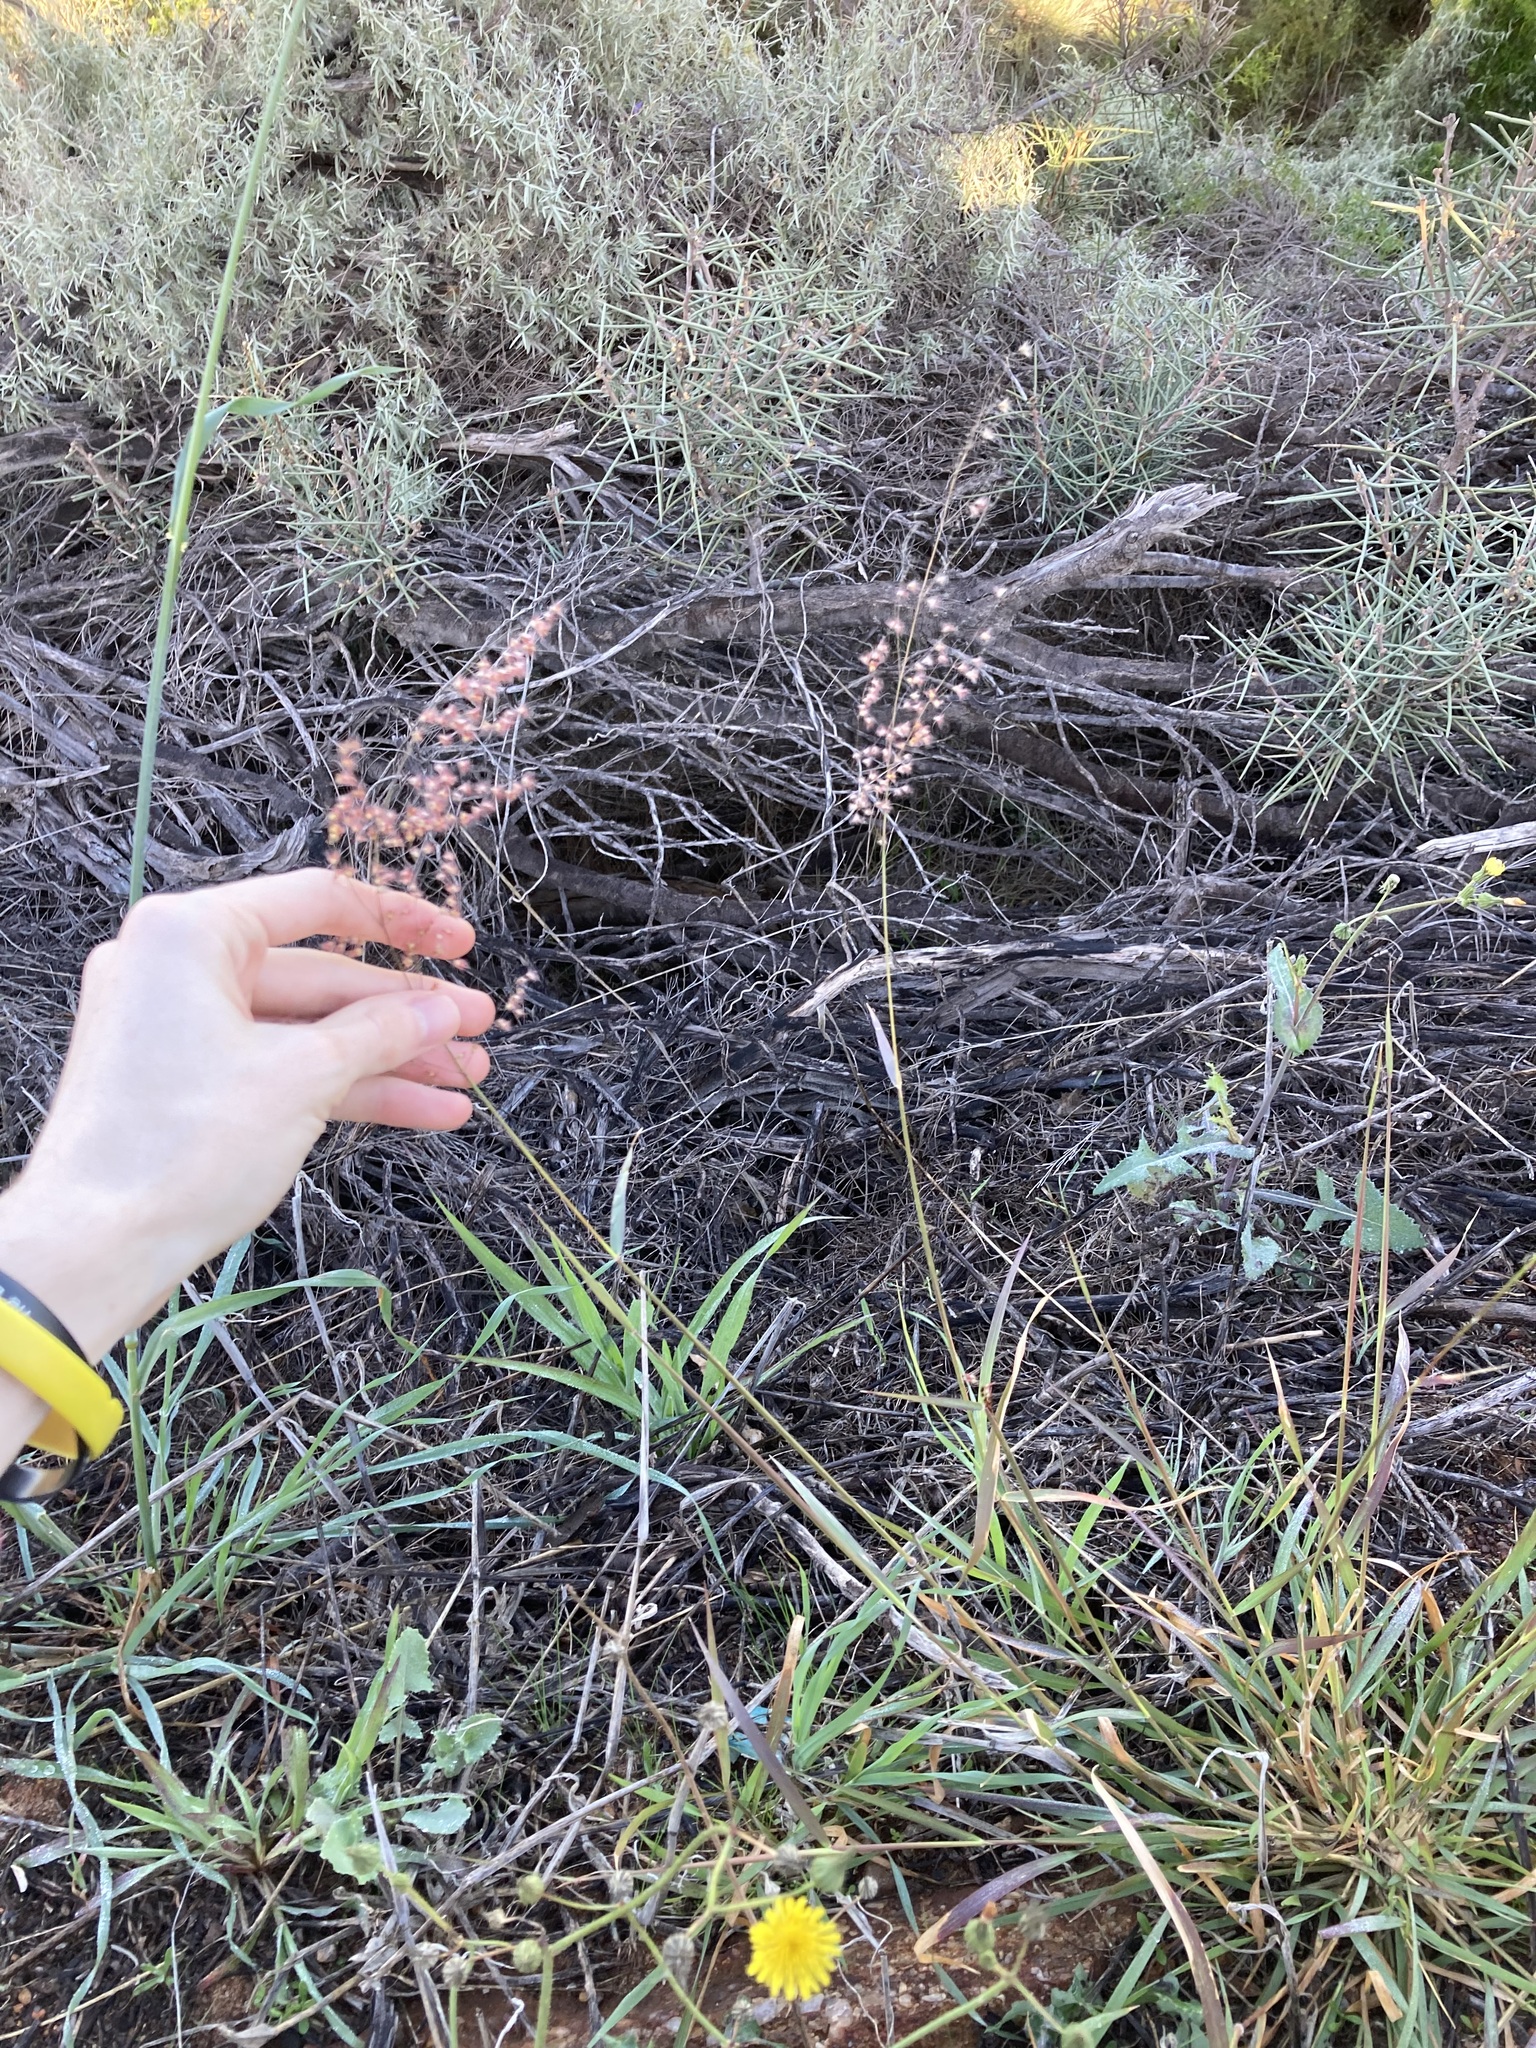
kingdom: Plantae
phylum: Tracheophyta
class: Liliopsida
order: Poales
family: Poaceae
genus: Melinis
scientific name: Melinis repens
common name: Rose natal grass
